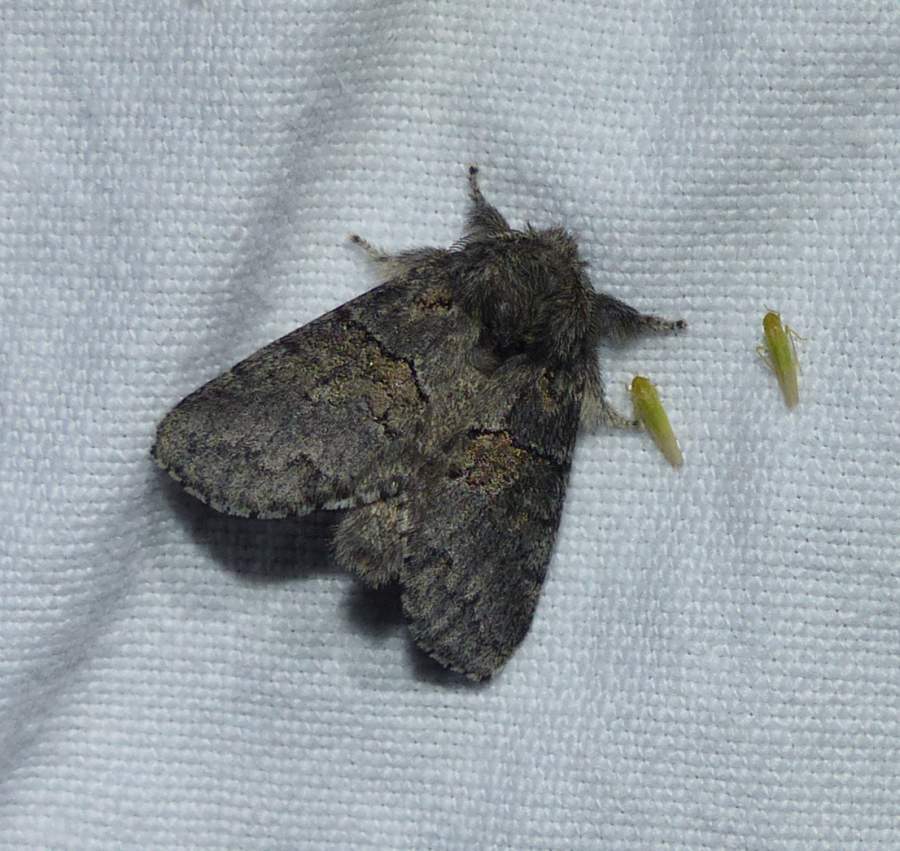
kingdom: Animalia
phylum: Arthropoda
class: Insecta
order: Lepidoptera
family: Notodontidae
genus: Gluphisia
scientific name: Gluphisia septentrionis
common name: Common gluphisia
